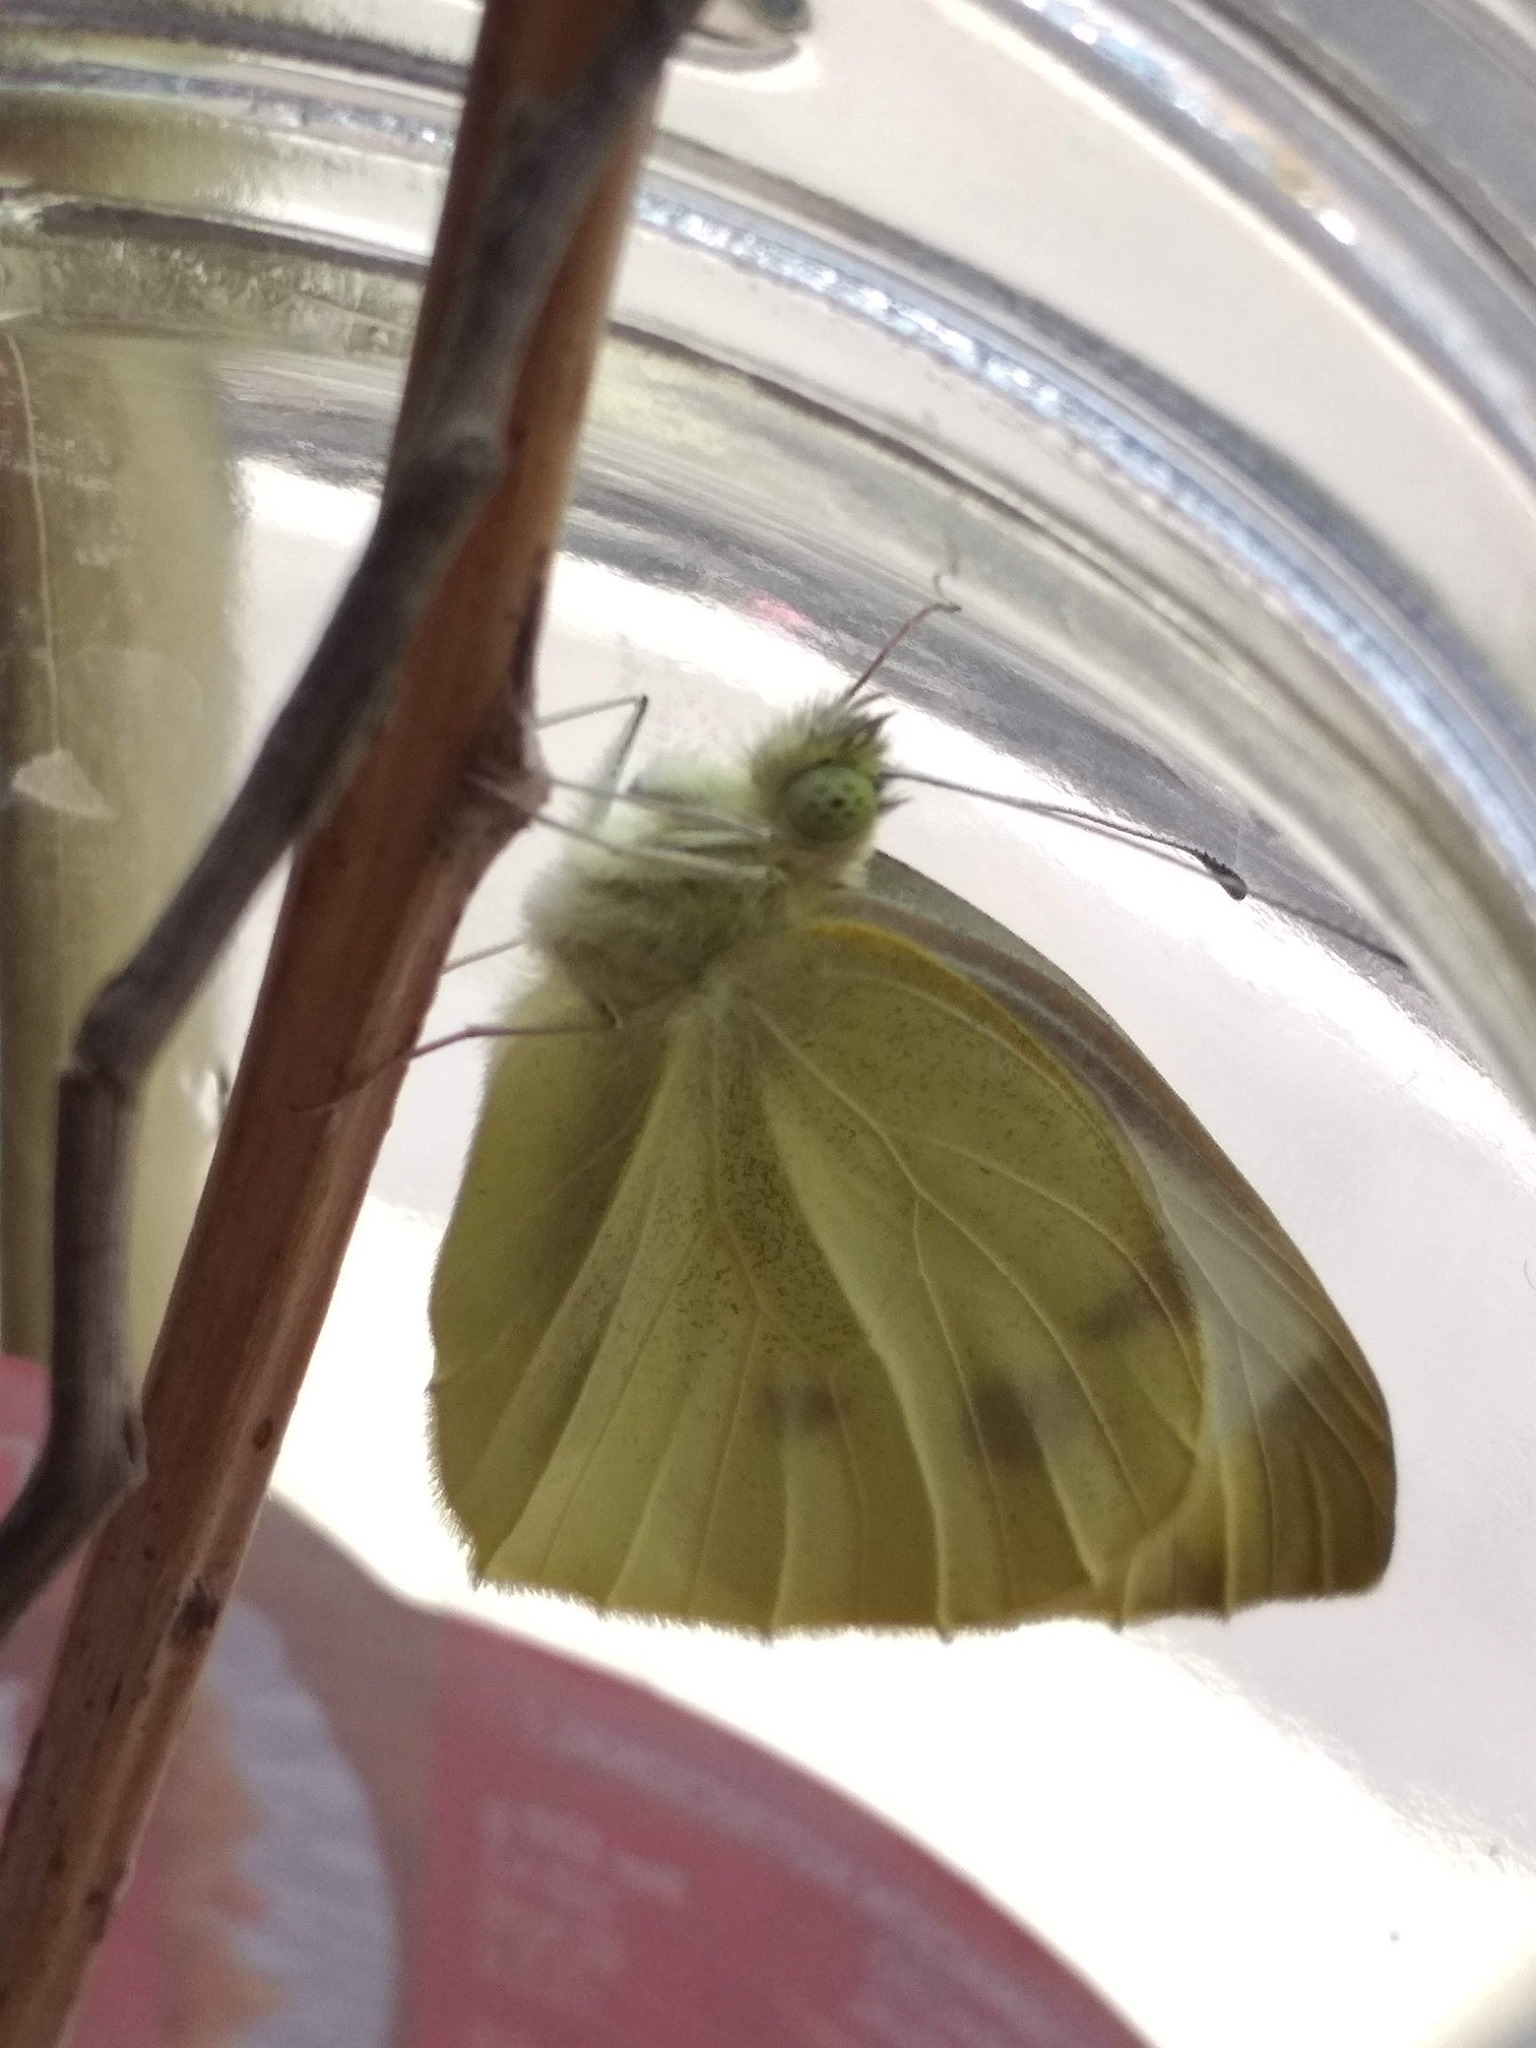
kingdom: Animalia
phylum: Arthropoda
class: Insecta
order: Lepidoptera
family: Pieridae
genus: Pieris
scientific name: Pieris rapae
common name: Small white
